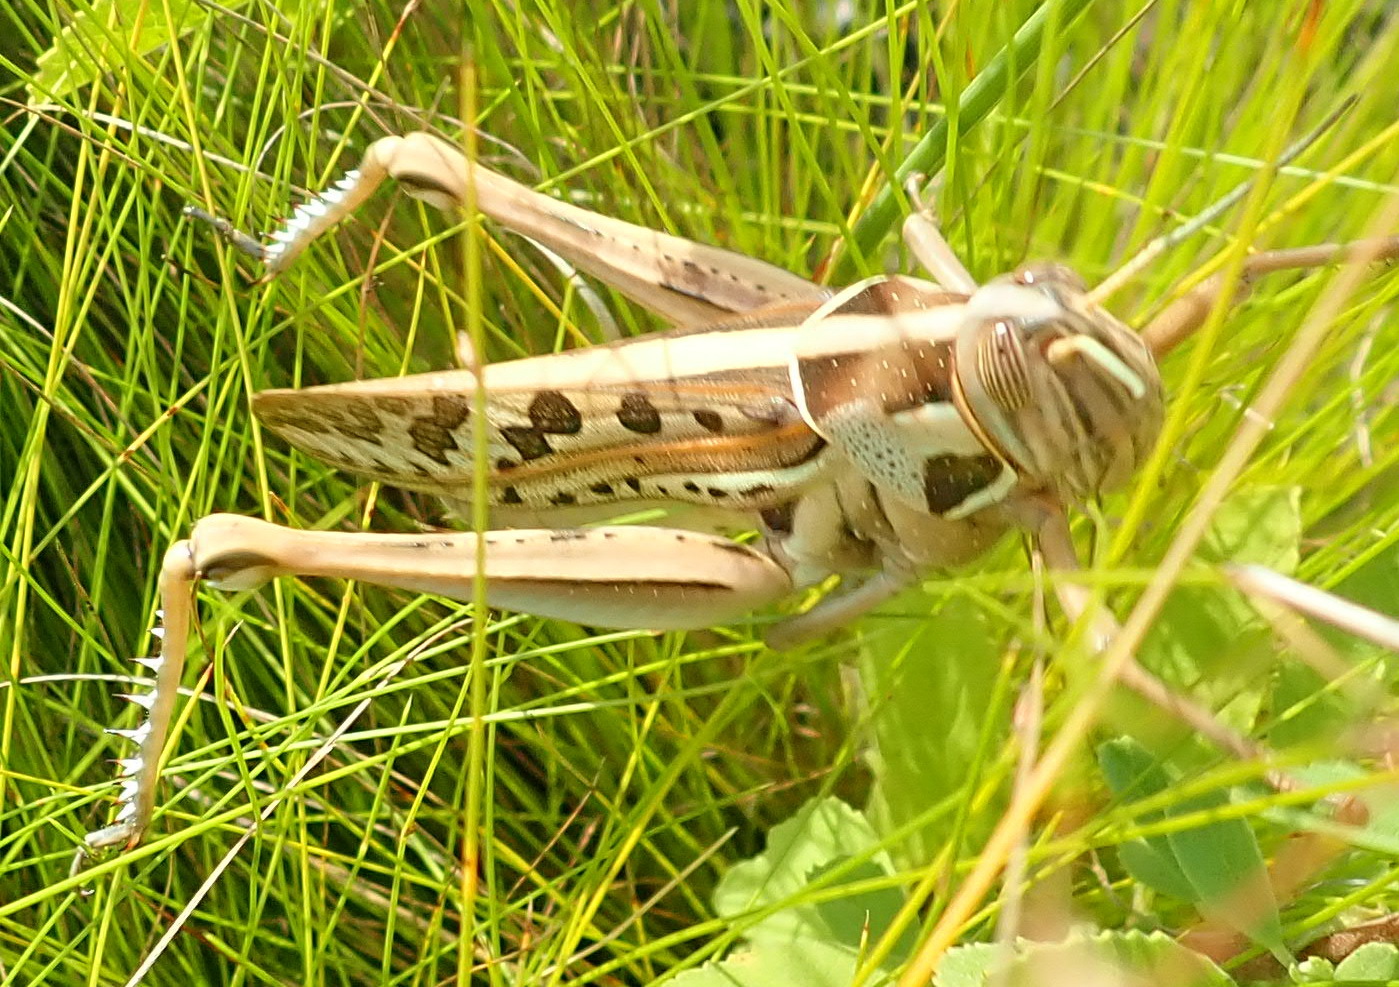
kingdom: Animalia
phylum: Arthropoda
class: Insecta
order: Orthoptera
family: Acrididae
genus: Cyrtacanthacris
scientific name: Cyrtacanthacris tatarica
